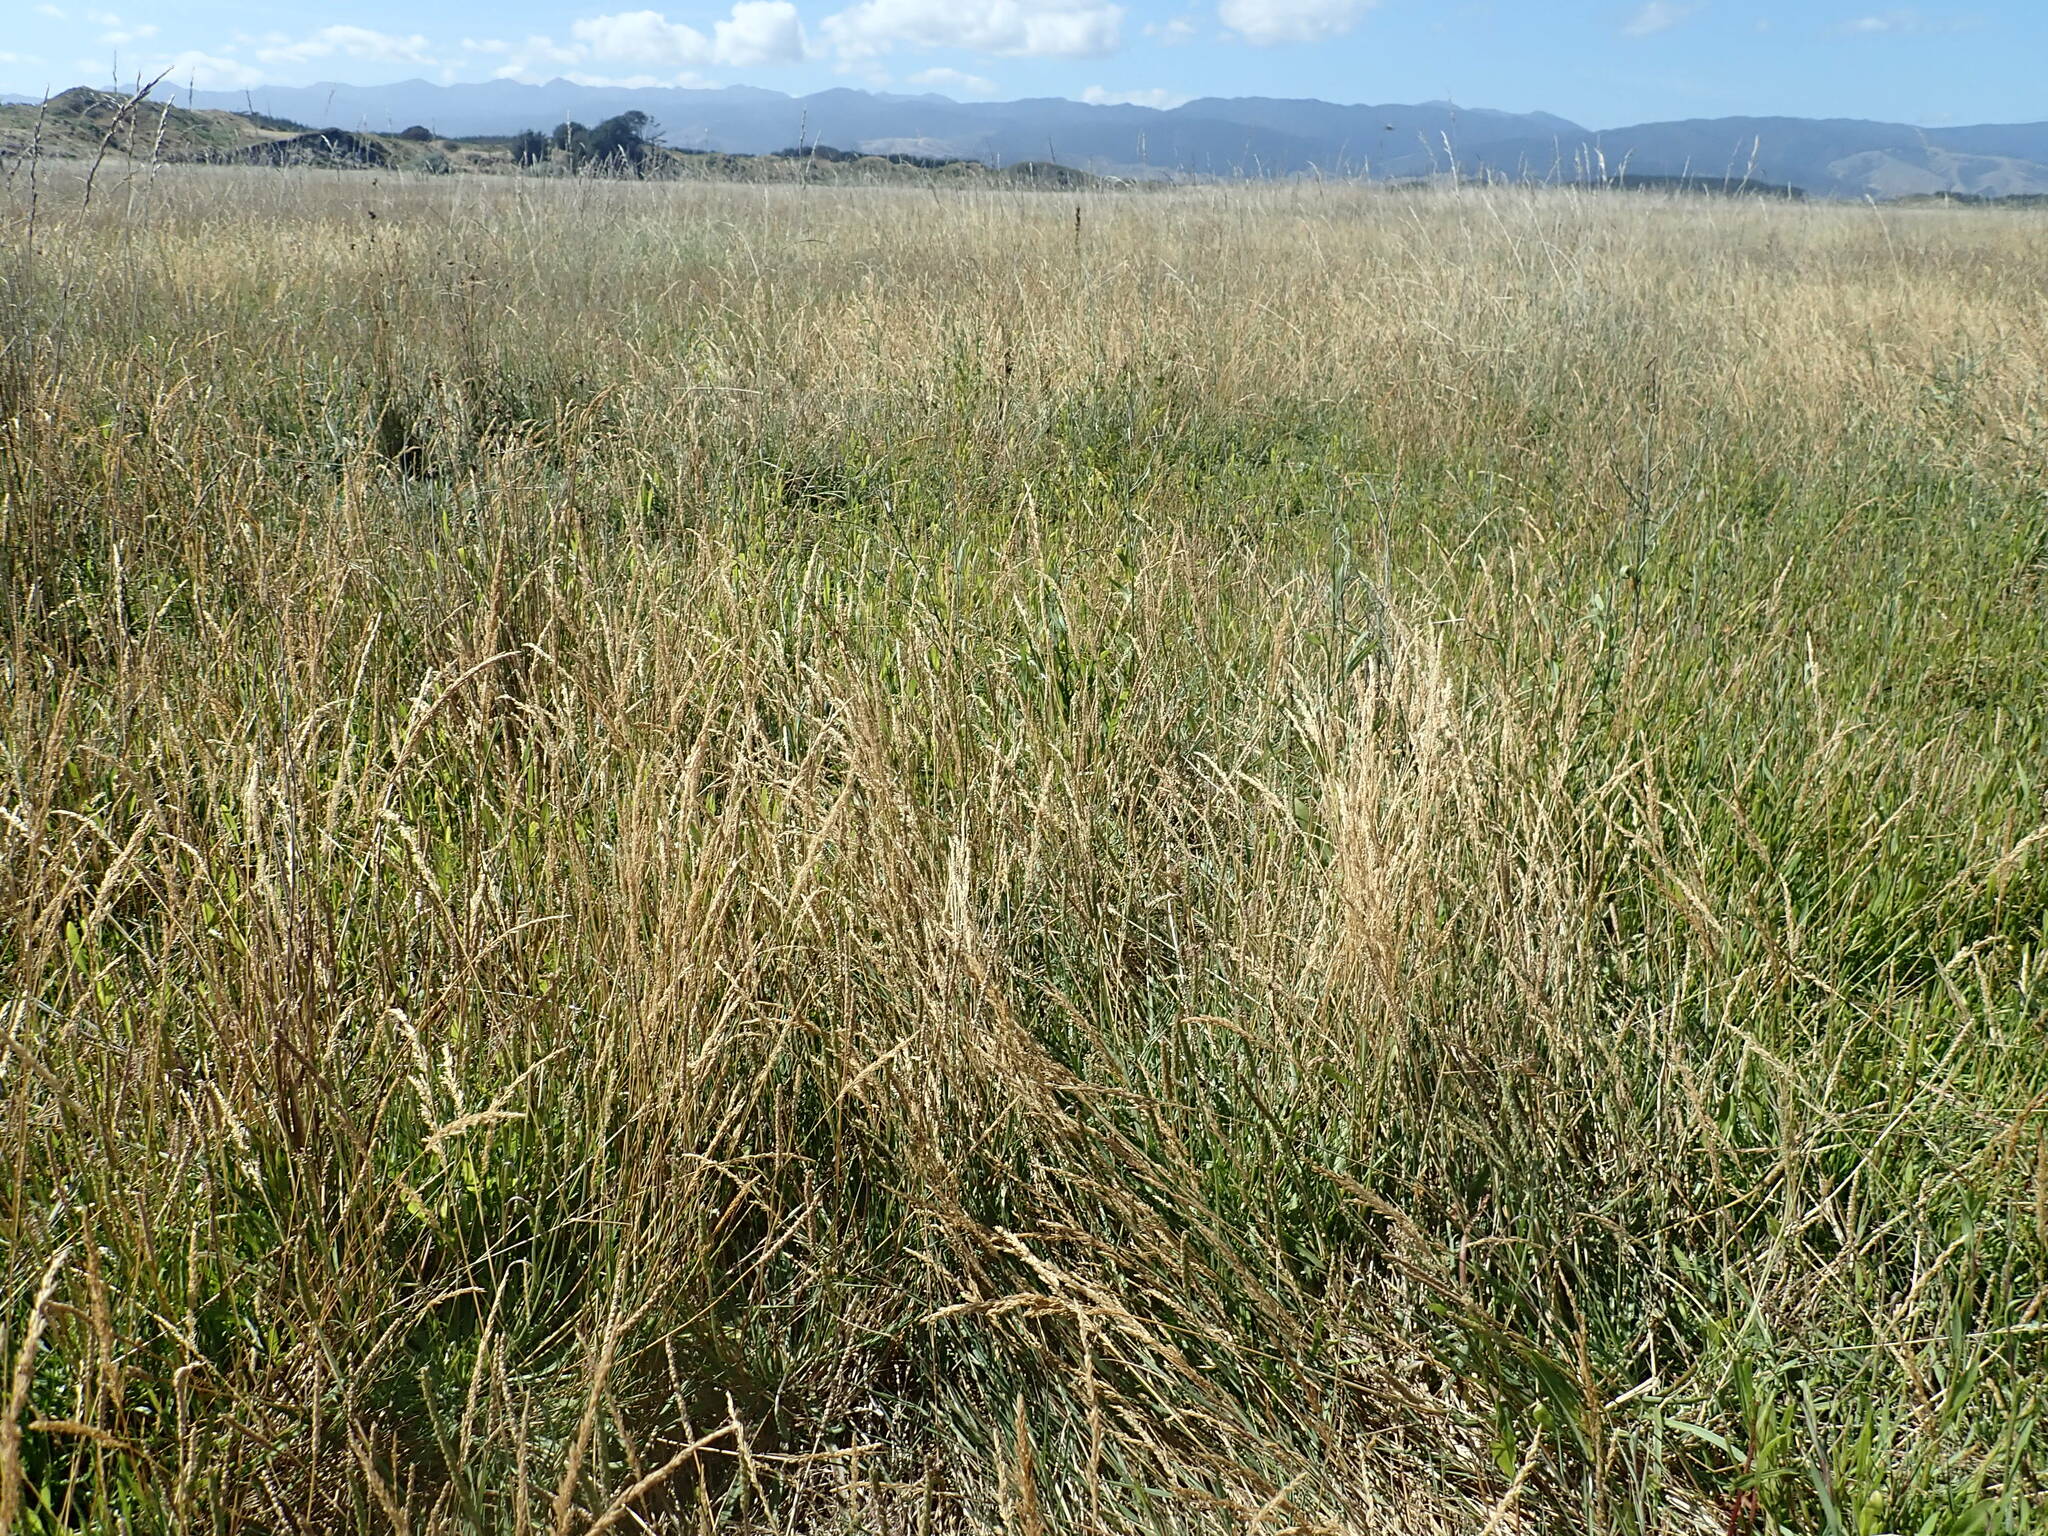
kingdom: Plantae
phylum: Tracheophyta
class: Liliopsida
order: Poales
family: Poaceae
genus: Agrostis
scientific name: Agrostis stolonifera
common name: Creeping bentgrass
